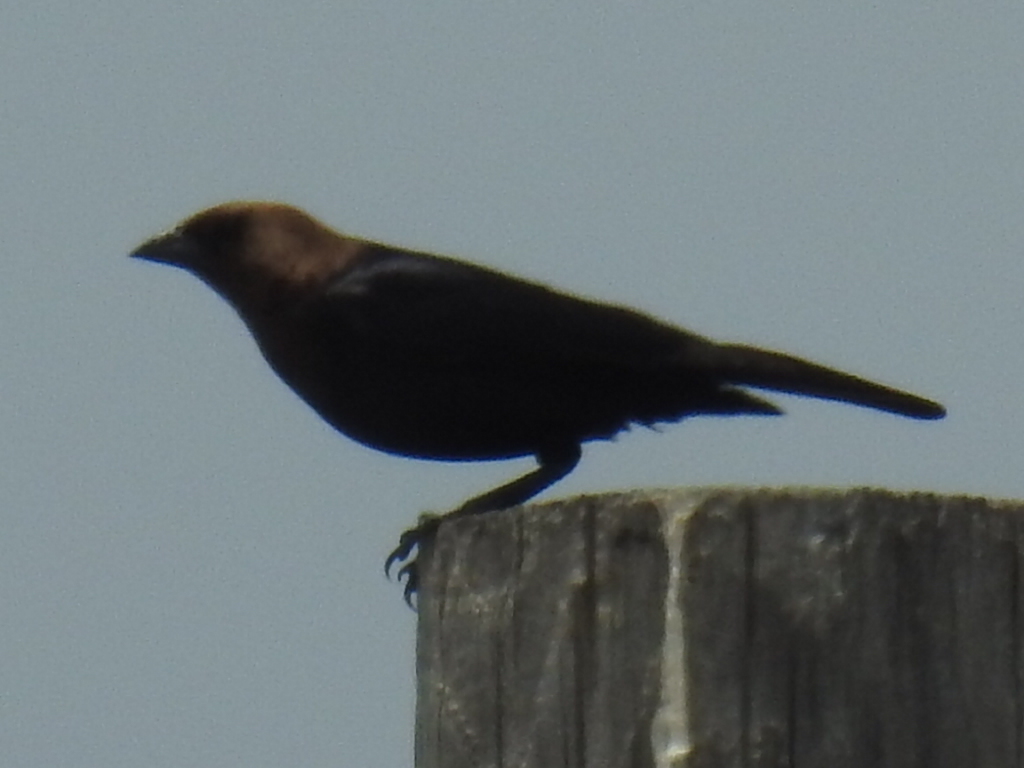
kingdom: Animalia
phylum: Chordata
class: Aves
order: Passeriformes
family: Icteridae
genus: Molothrus
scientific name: Molothrus ater
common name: Brown-headed cowbird
